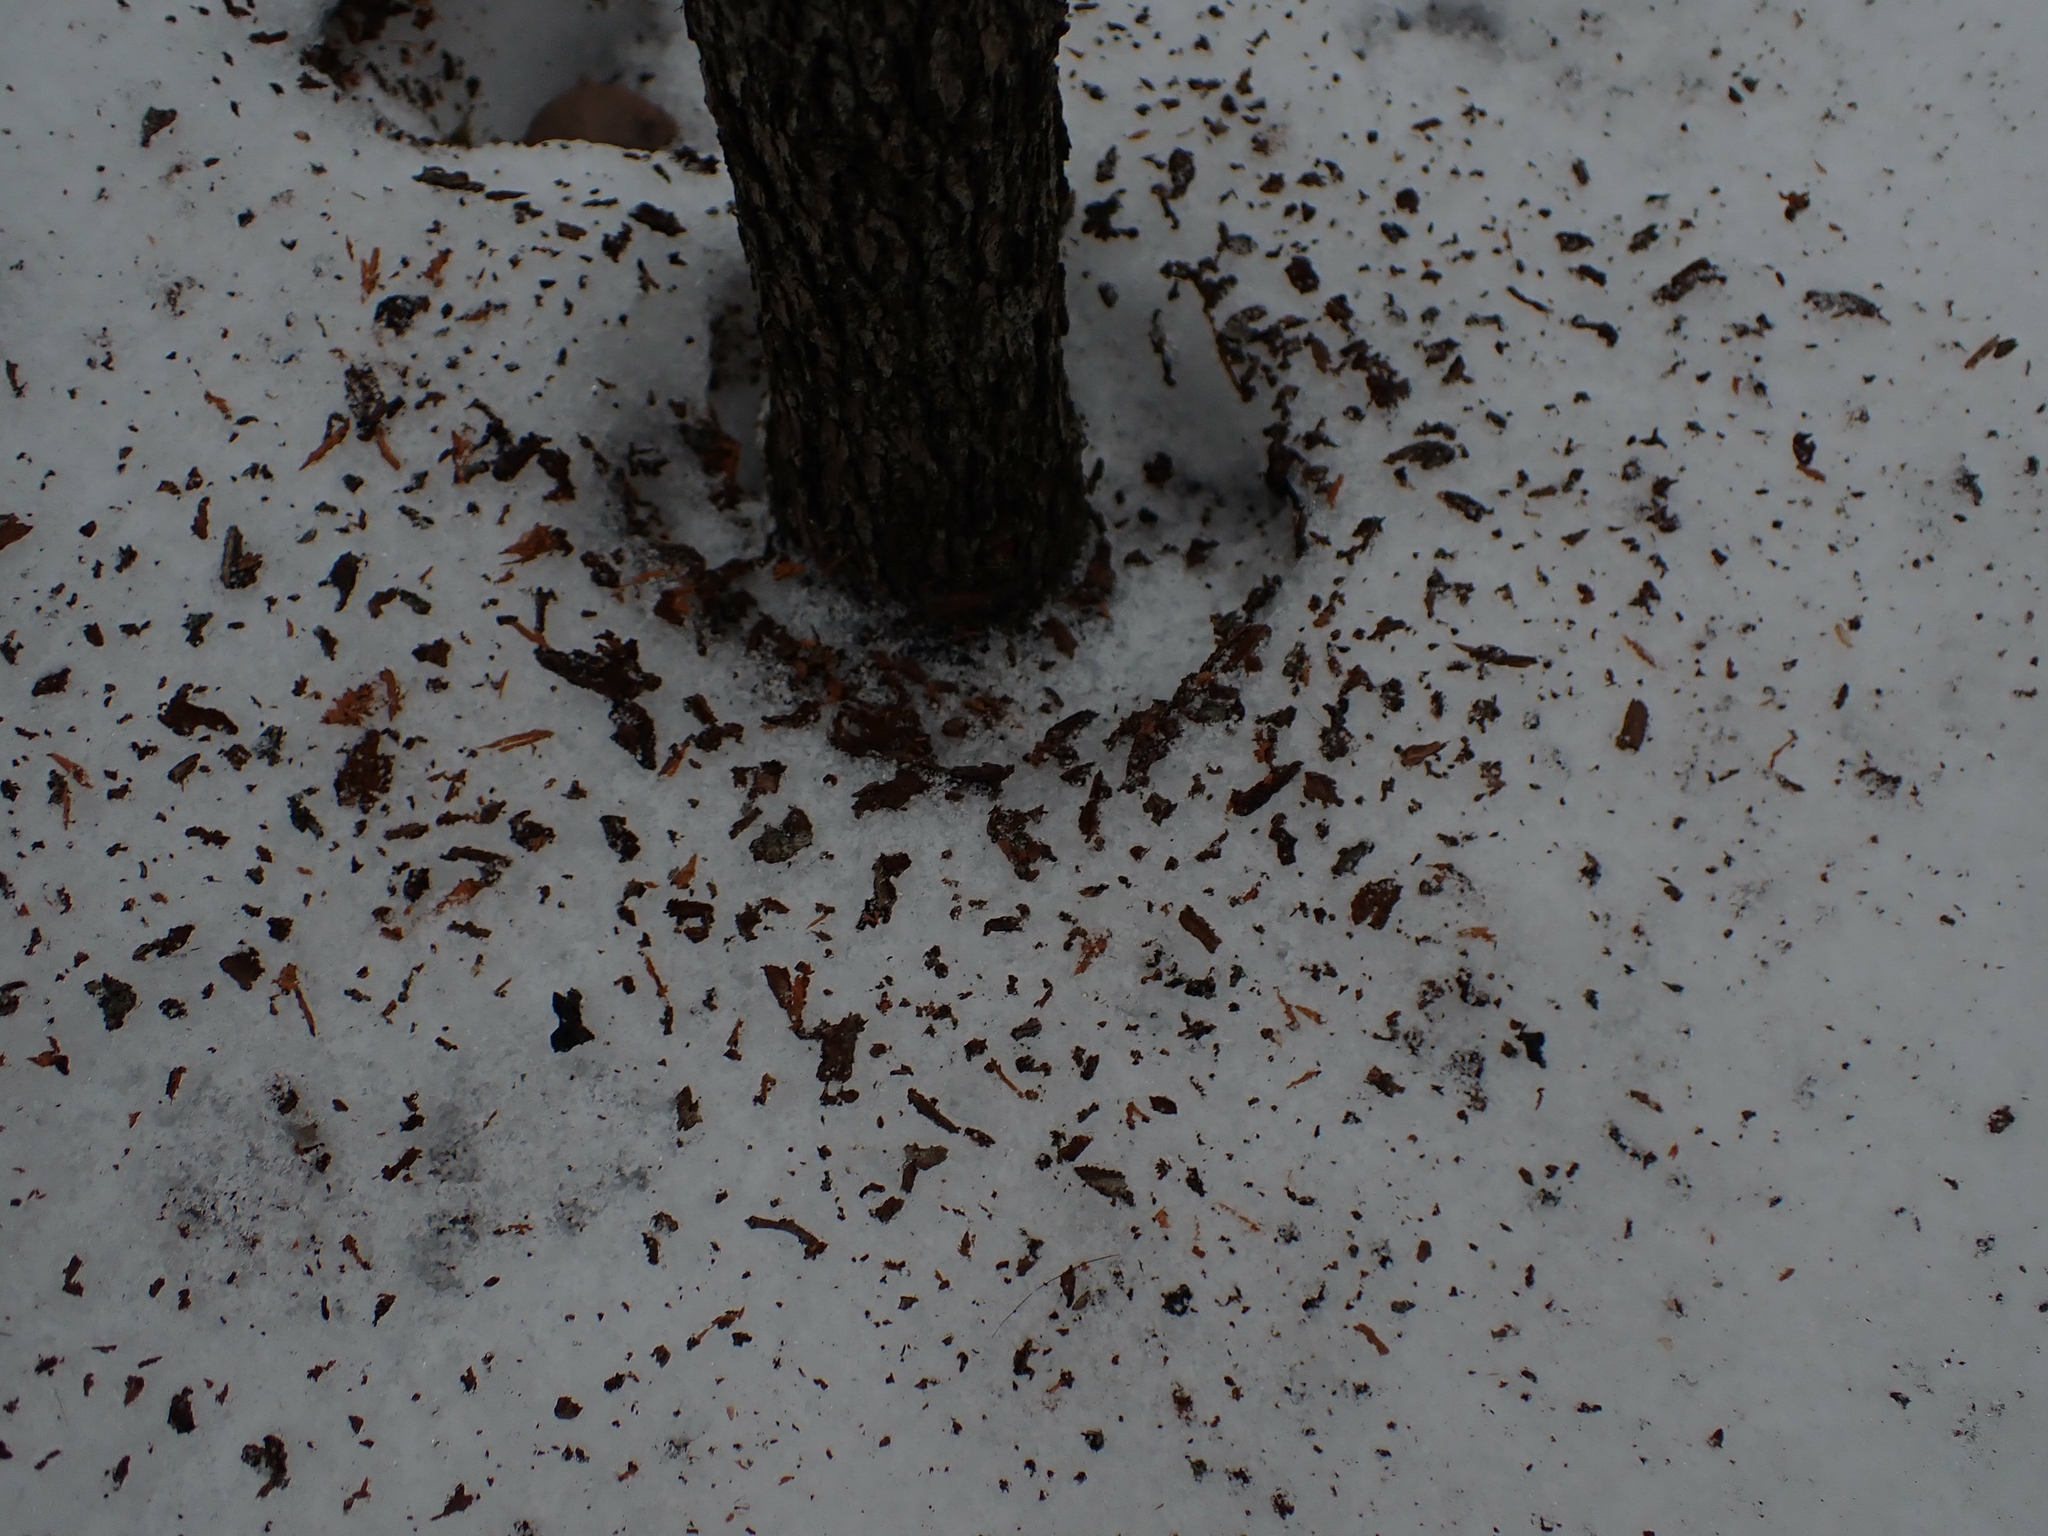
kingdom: Animalia
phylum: Chordata
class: Mammalia
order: Artiodactyla
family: Cervidae
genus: Odocoileus
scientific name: Odocoileus virginianus
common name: White-tailed deer
